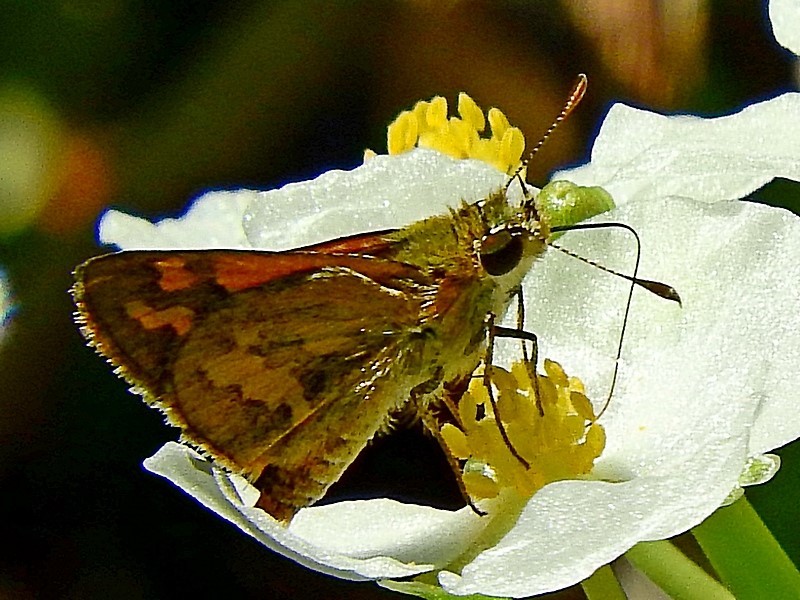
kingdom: Animalia
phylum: Arthropoda
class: Insecta
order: Lepidoptera
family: Hesperiidae
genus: Ocybadistes
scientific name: Ocybadistes walkeri
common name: Yellow-banded dart
